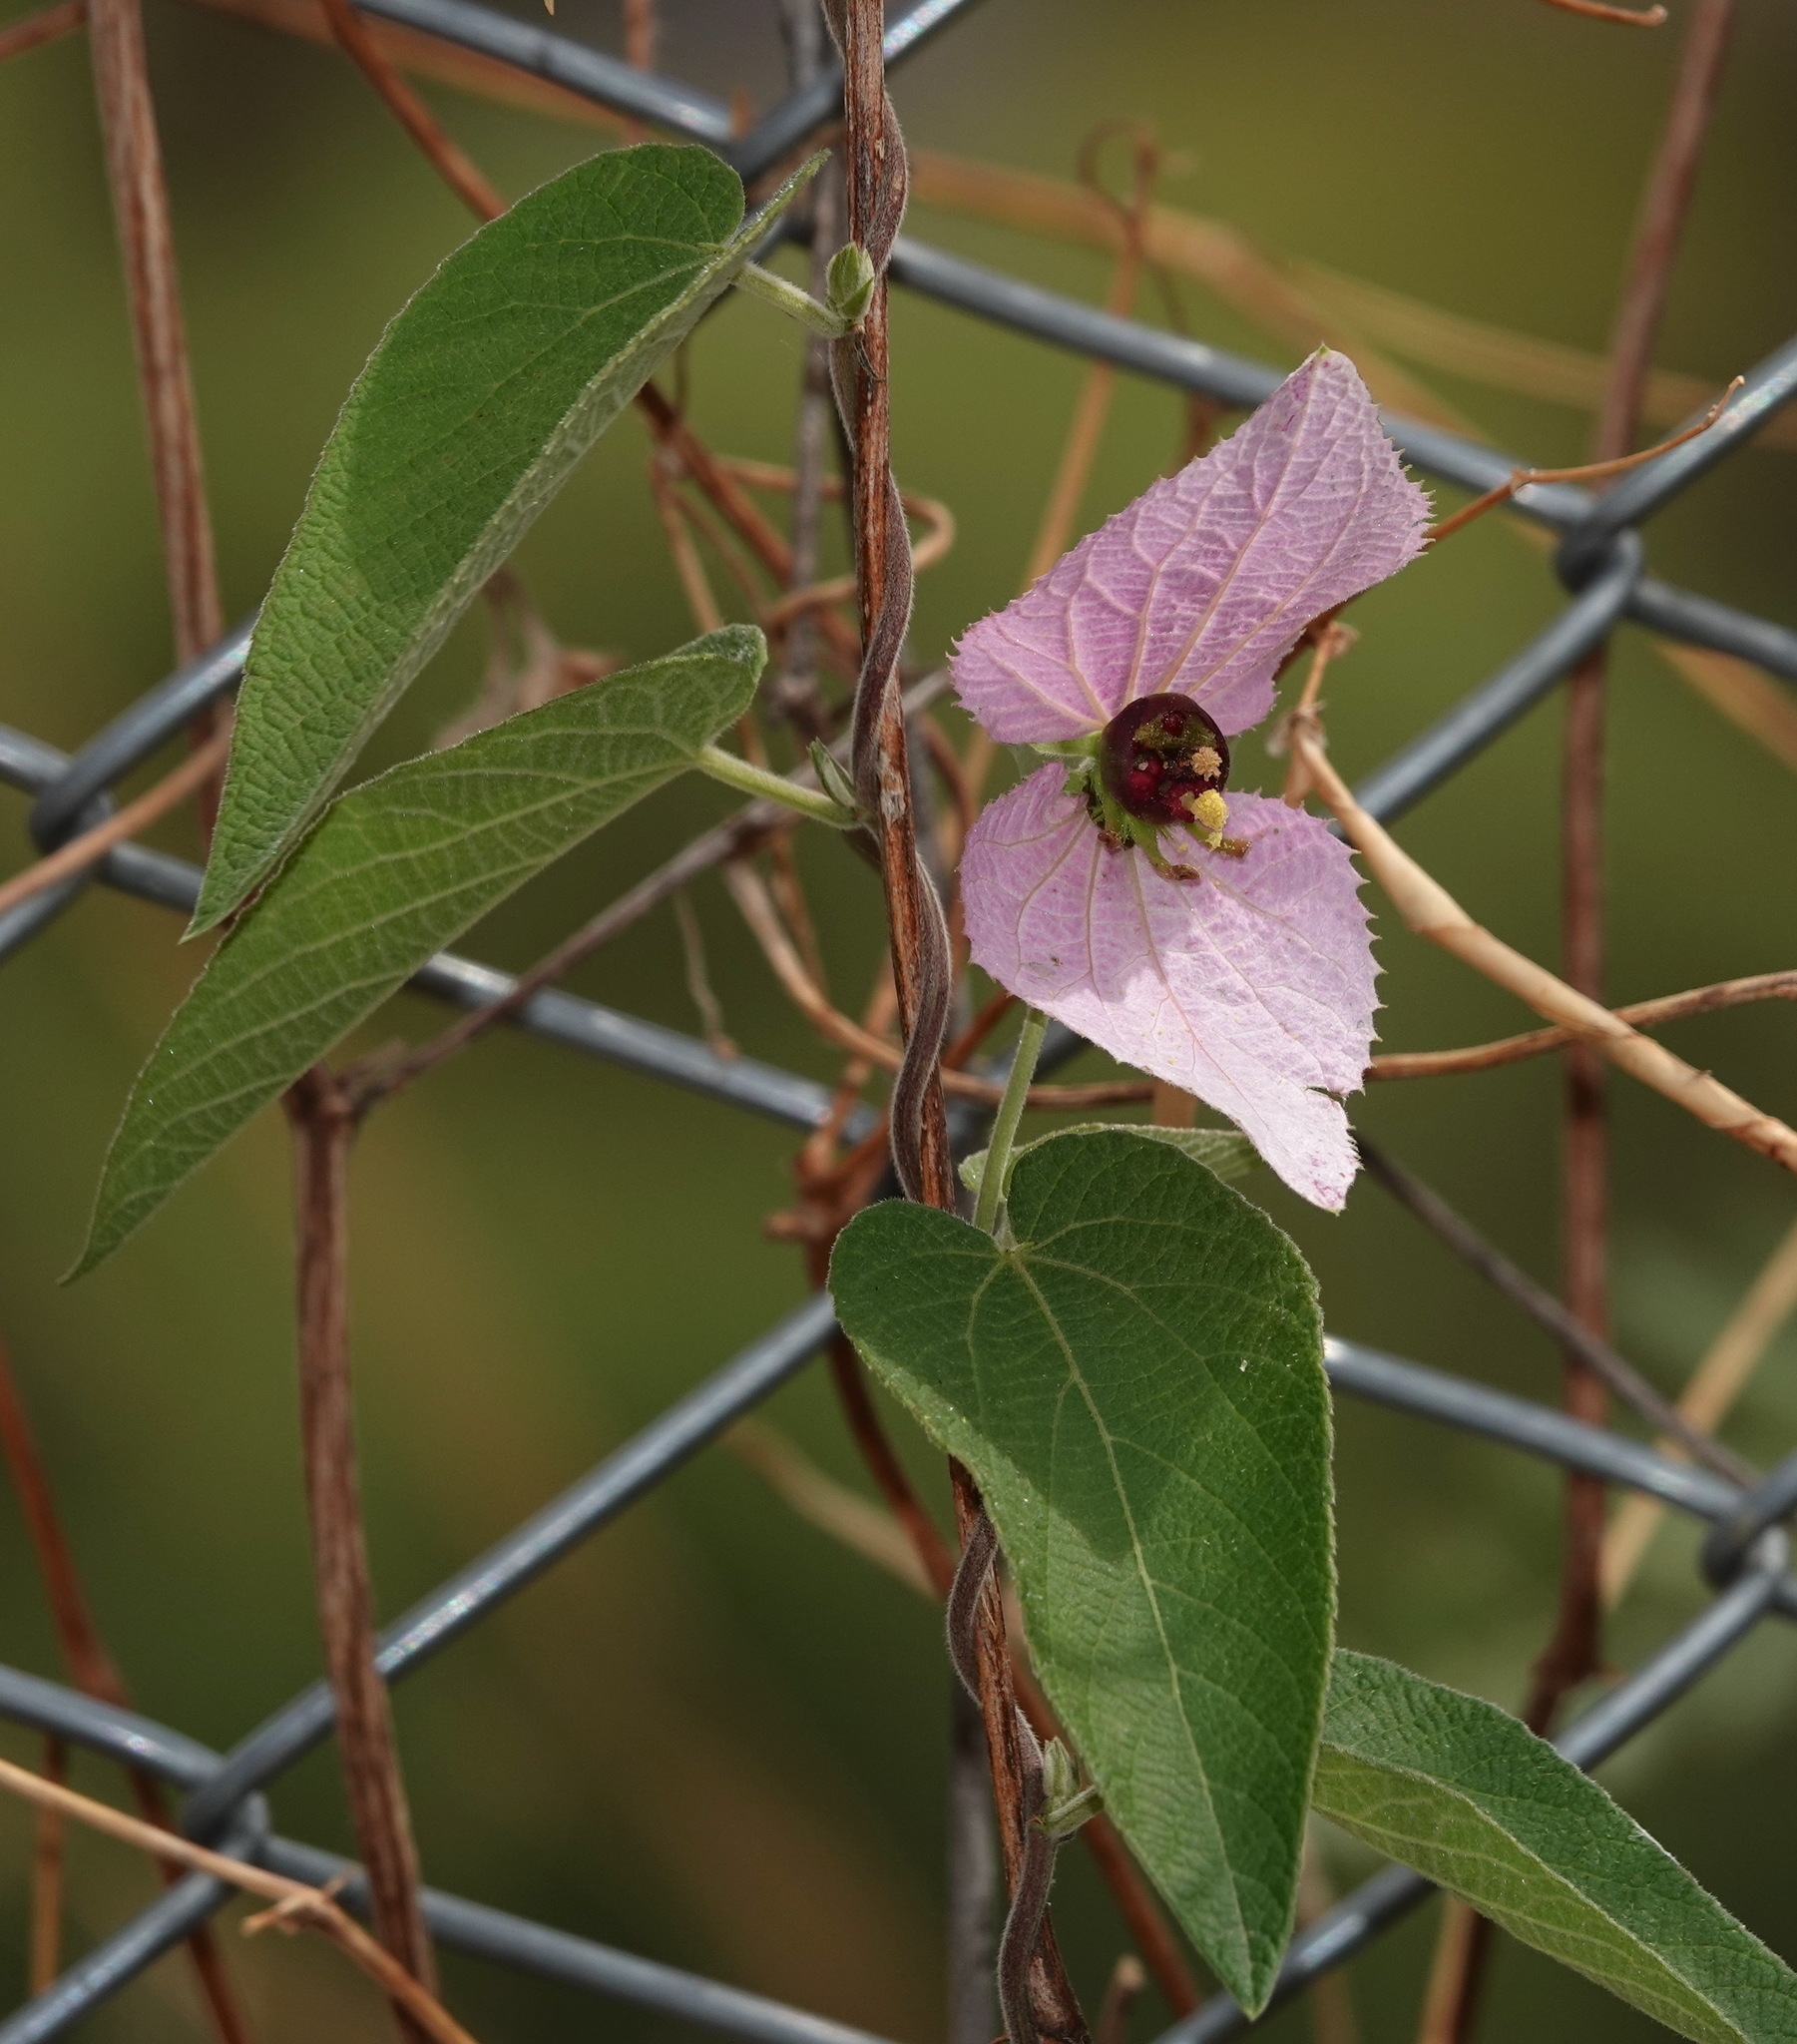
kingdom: Plantae
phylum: Tracheophyta
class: Magnoliopsida
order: Malpighiales
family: Euphorbiaceae
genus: Dalechampia
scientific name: Dalechampia aristolochiifolia
